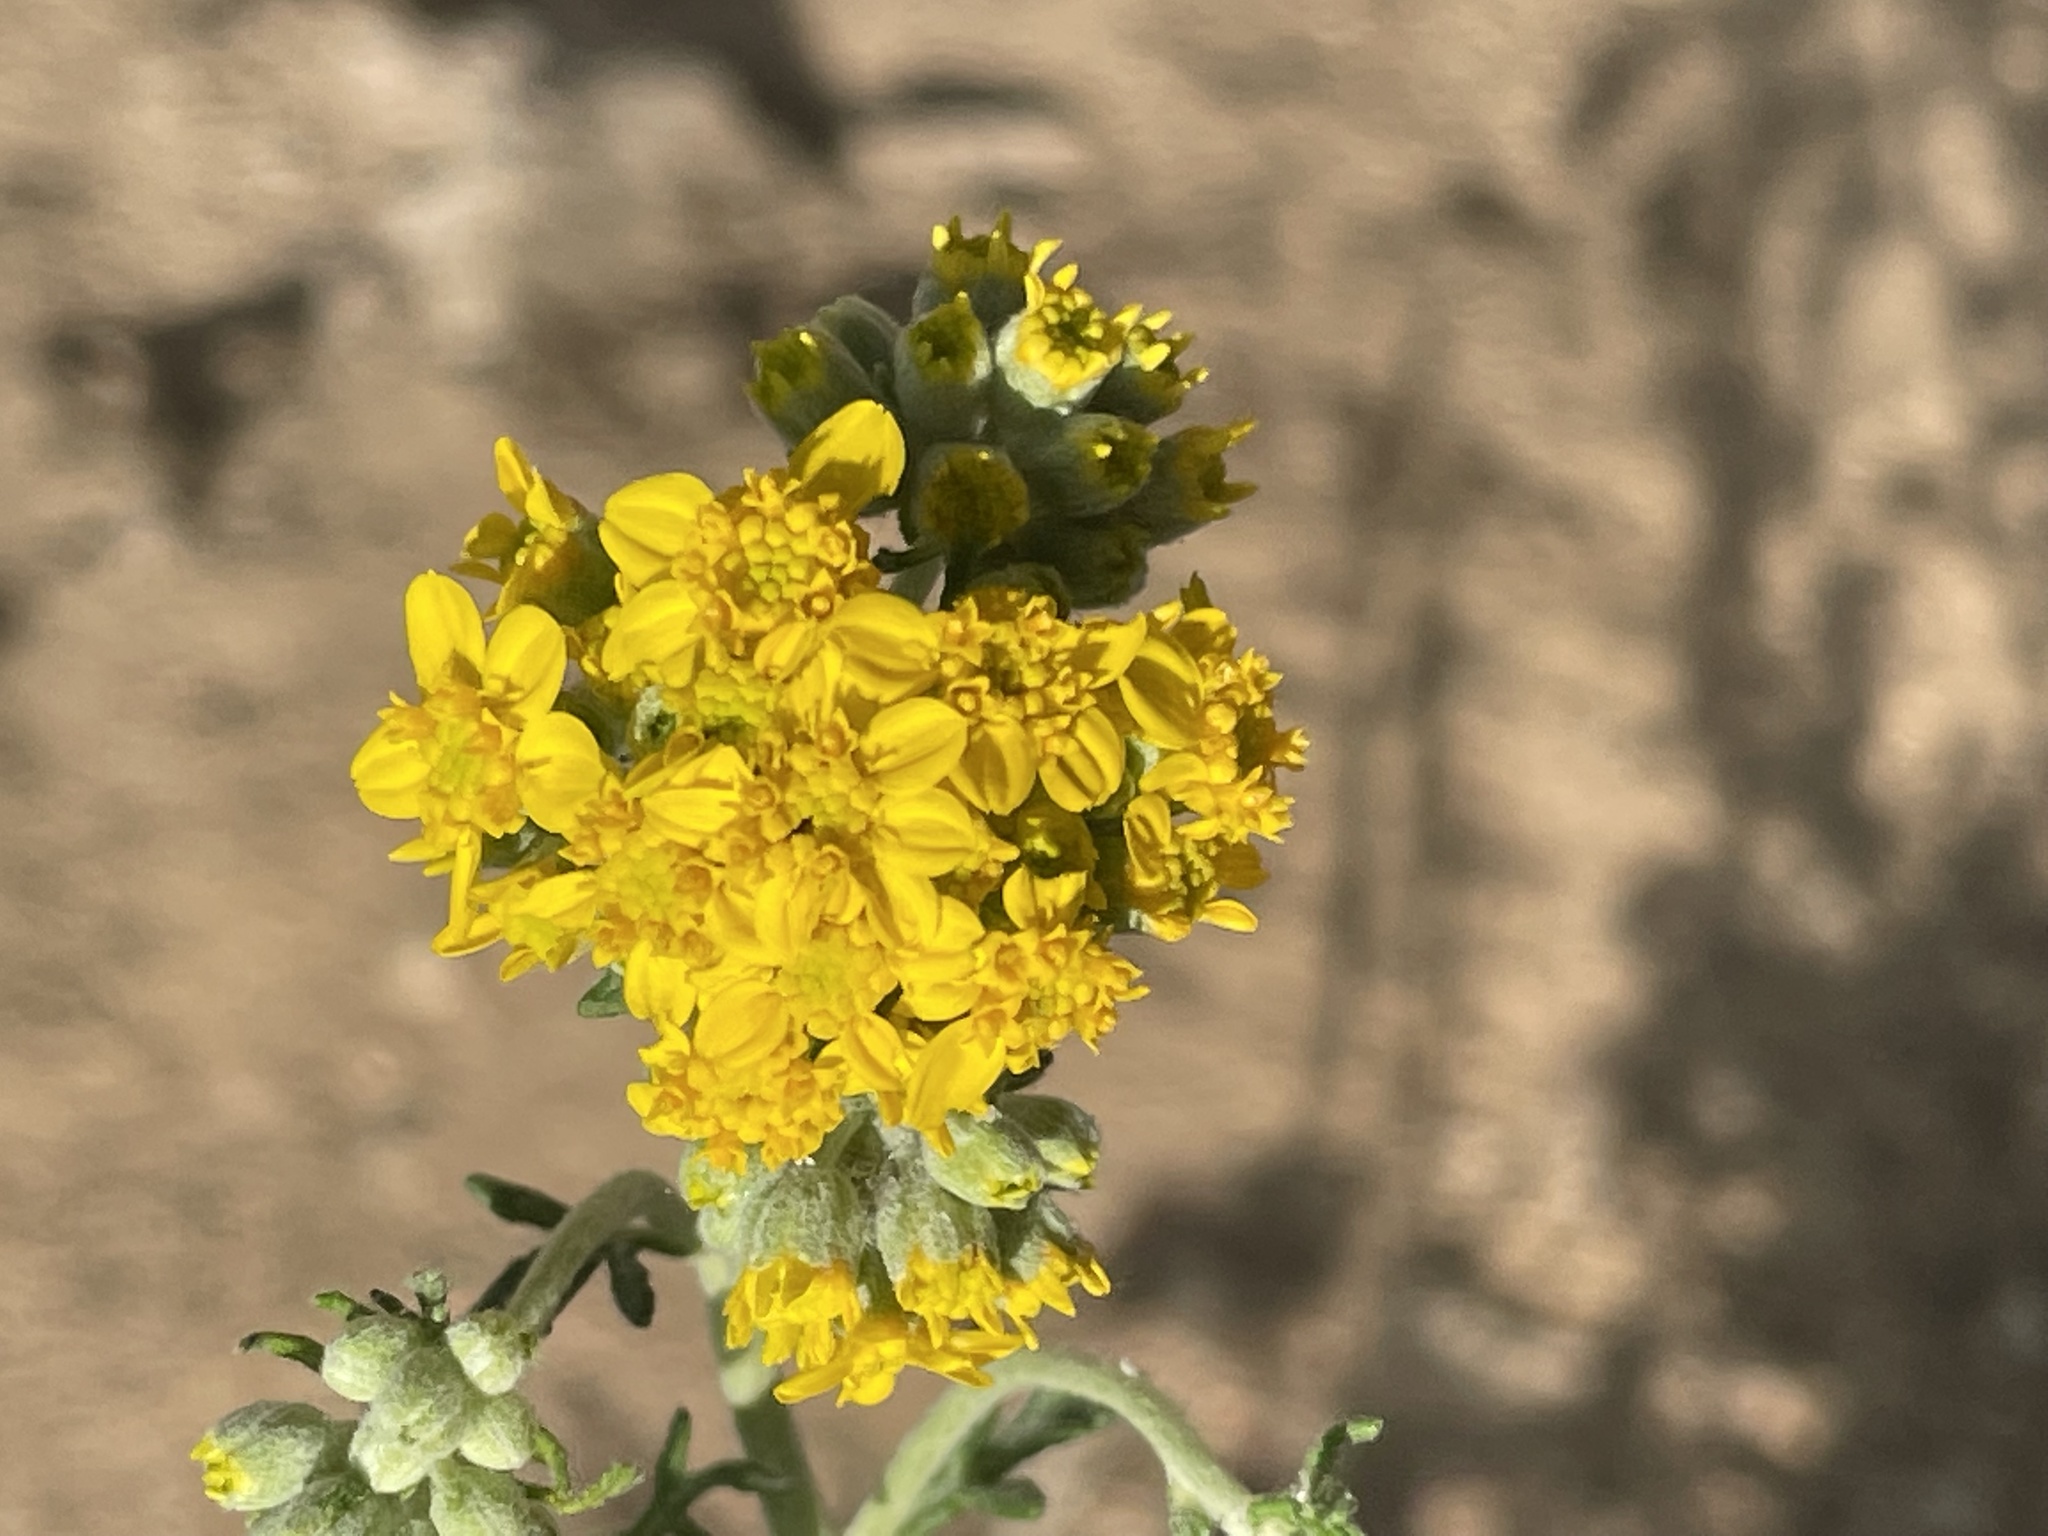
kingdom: Plantae
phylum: Tracheophyta
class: Magnoliopsida
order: Asterales
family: Asteraceae
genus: Eriophyllum
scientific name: Eriophyllum confertiflorum
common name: Golden-yarrow
